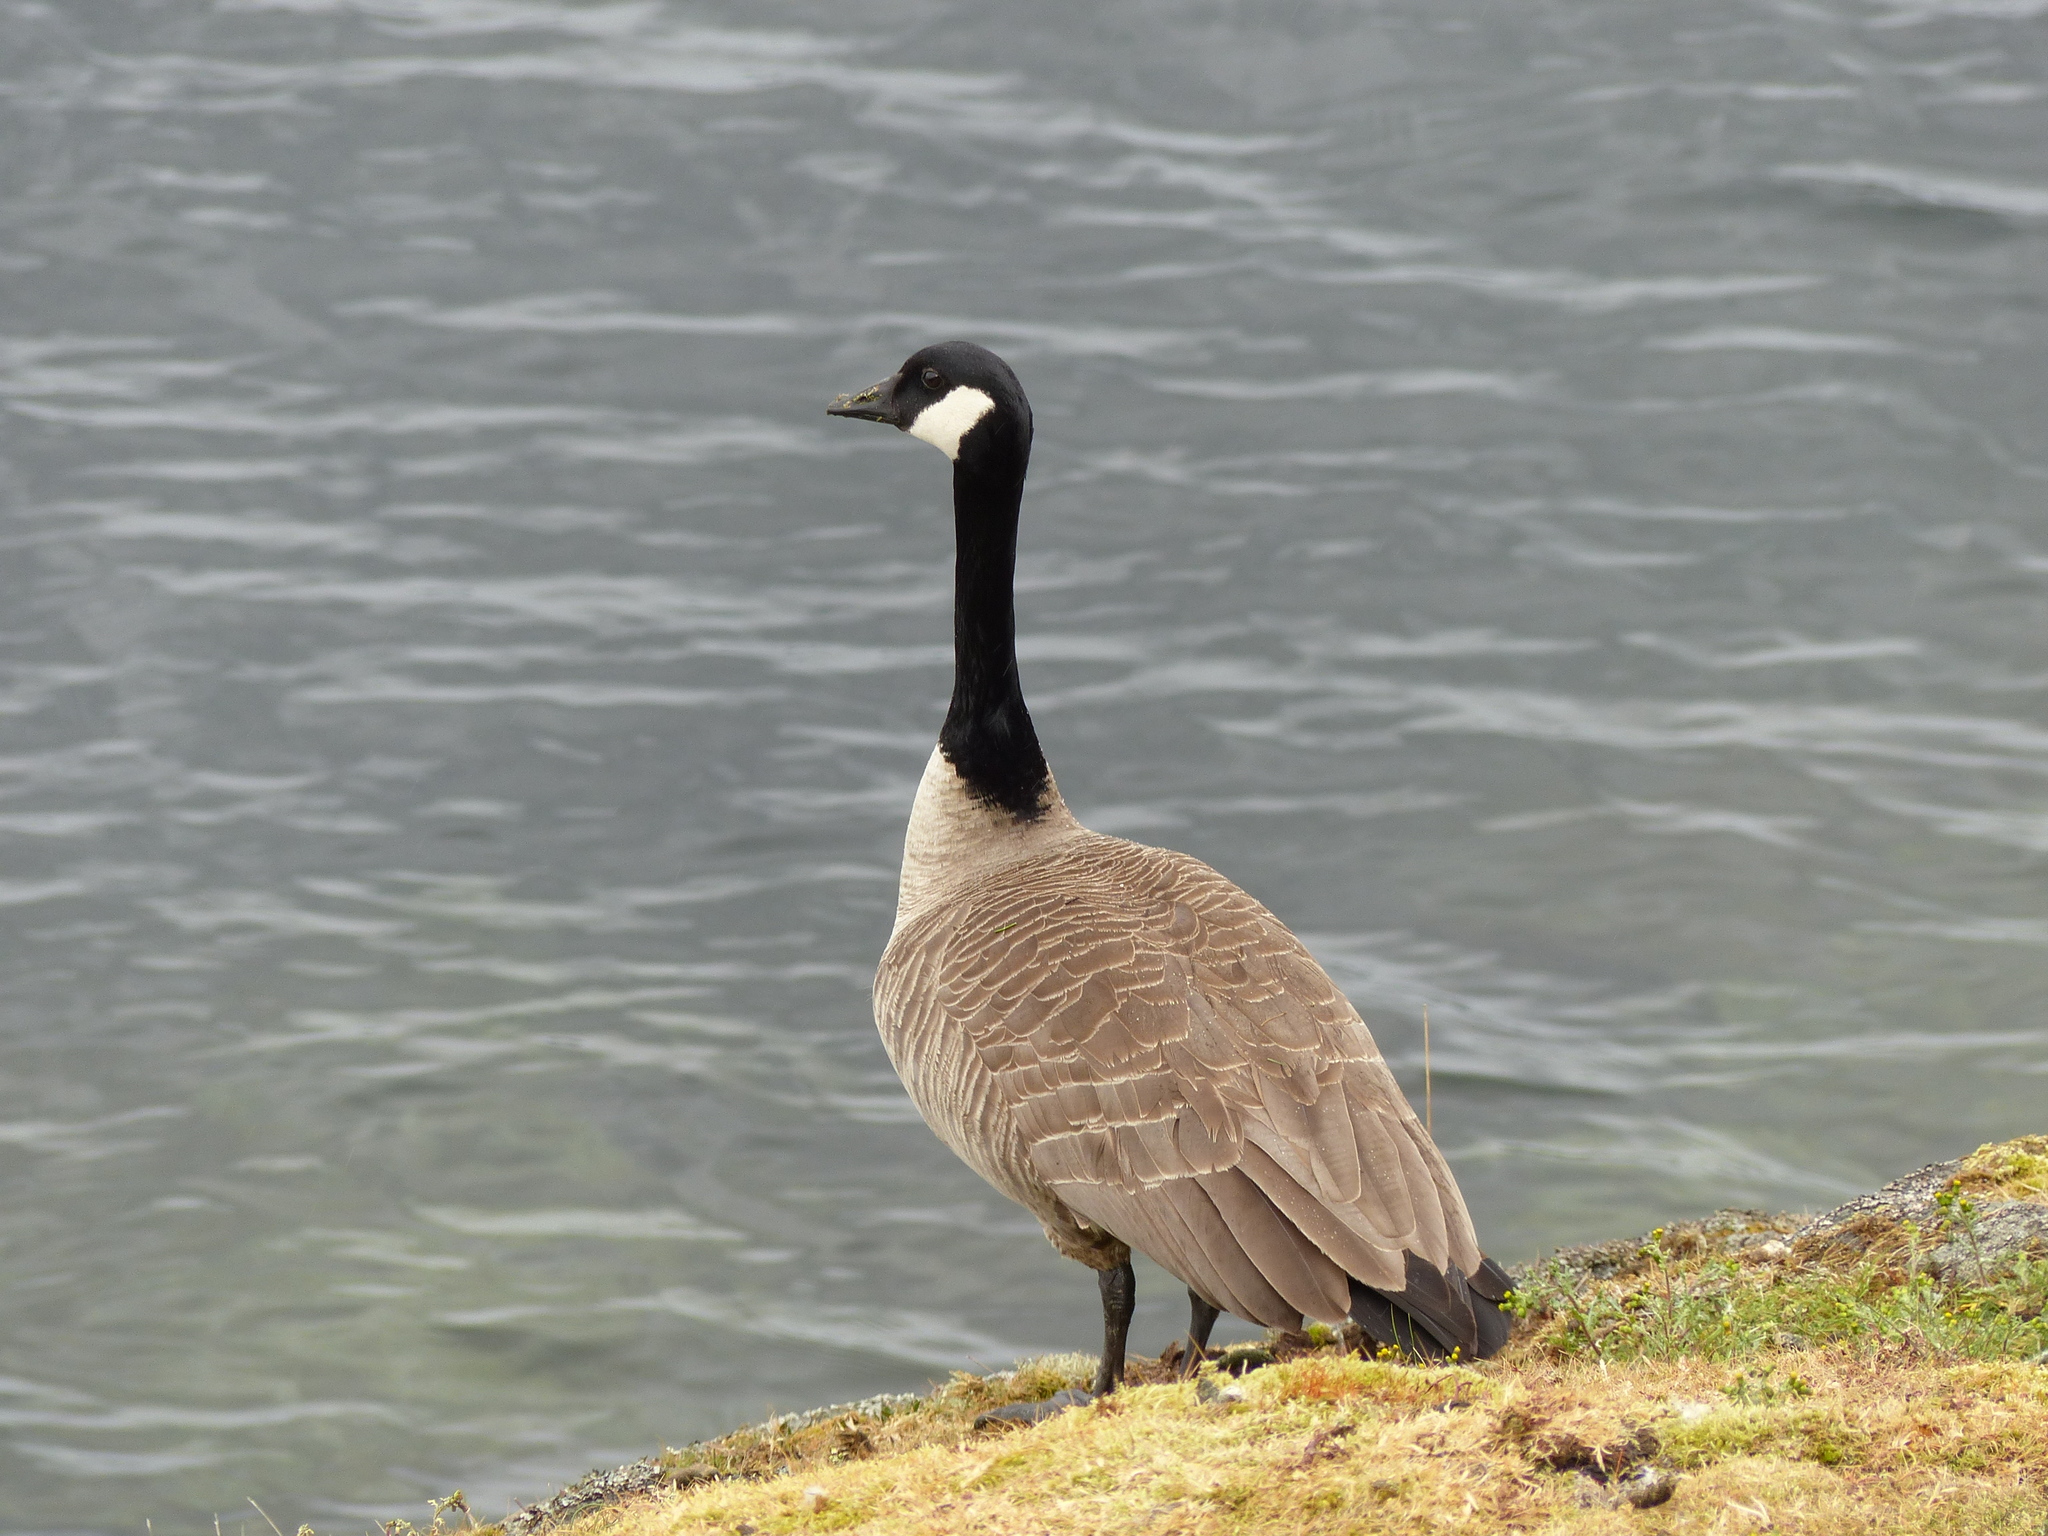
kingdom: Animalia
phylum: Chordata
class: Aves
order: Anseriformes
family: Anatidae
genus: Branta
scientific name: Branta canadensis
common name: Canada goose
